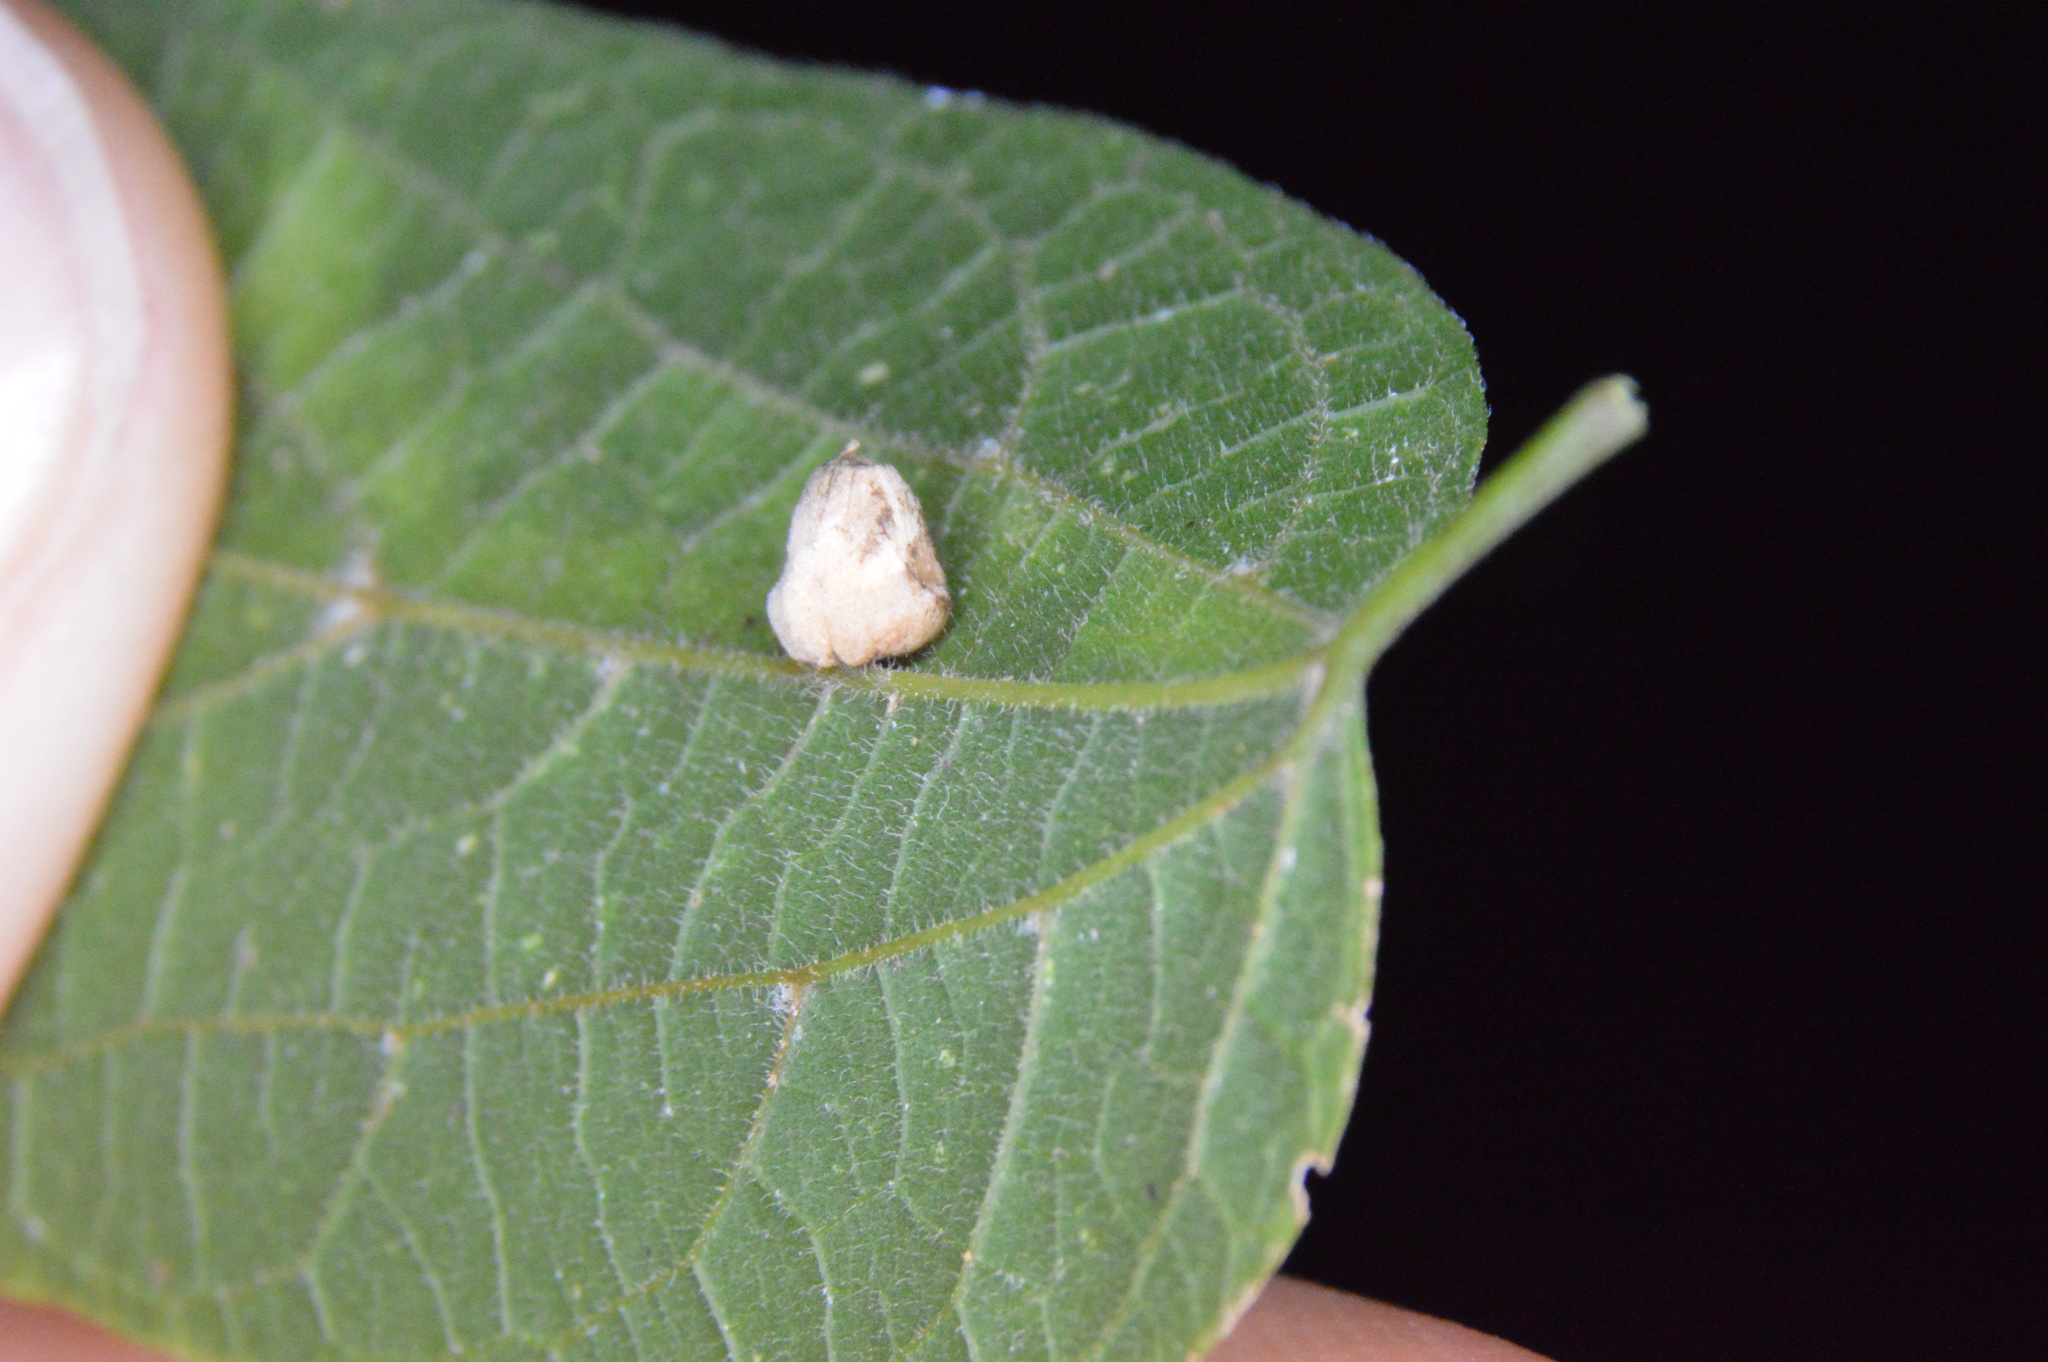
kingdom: Animalia
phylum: Arthropoda
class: Insecta
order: Diptera
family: Cecidomyiidae
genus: Celticecis
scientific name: Celticecis globosa
